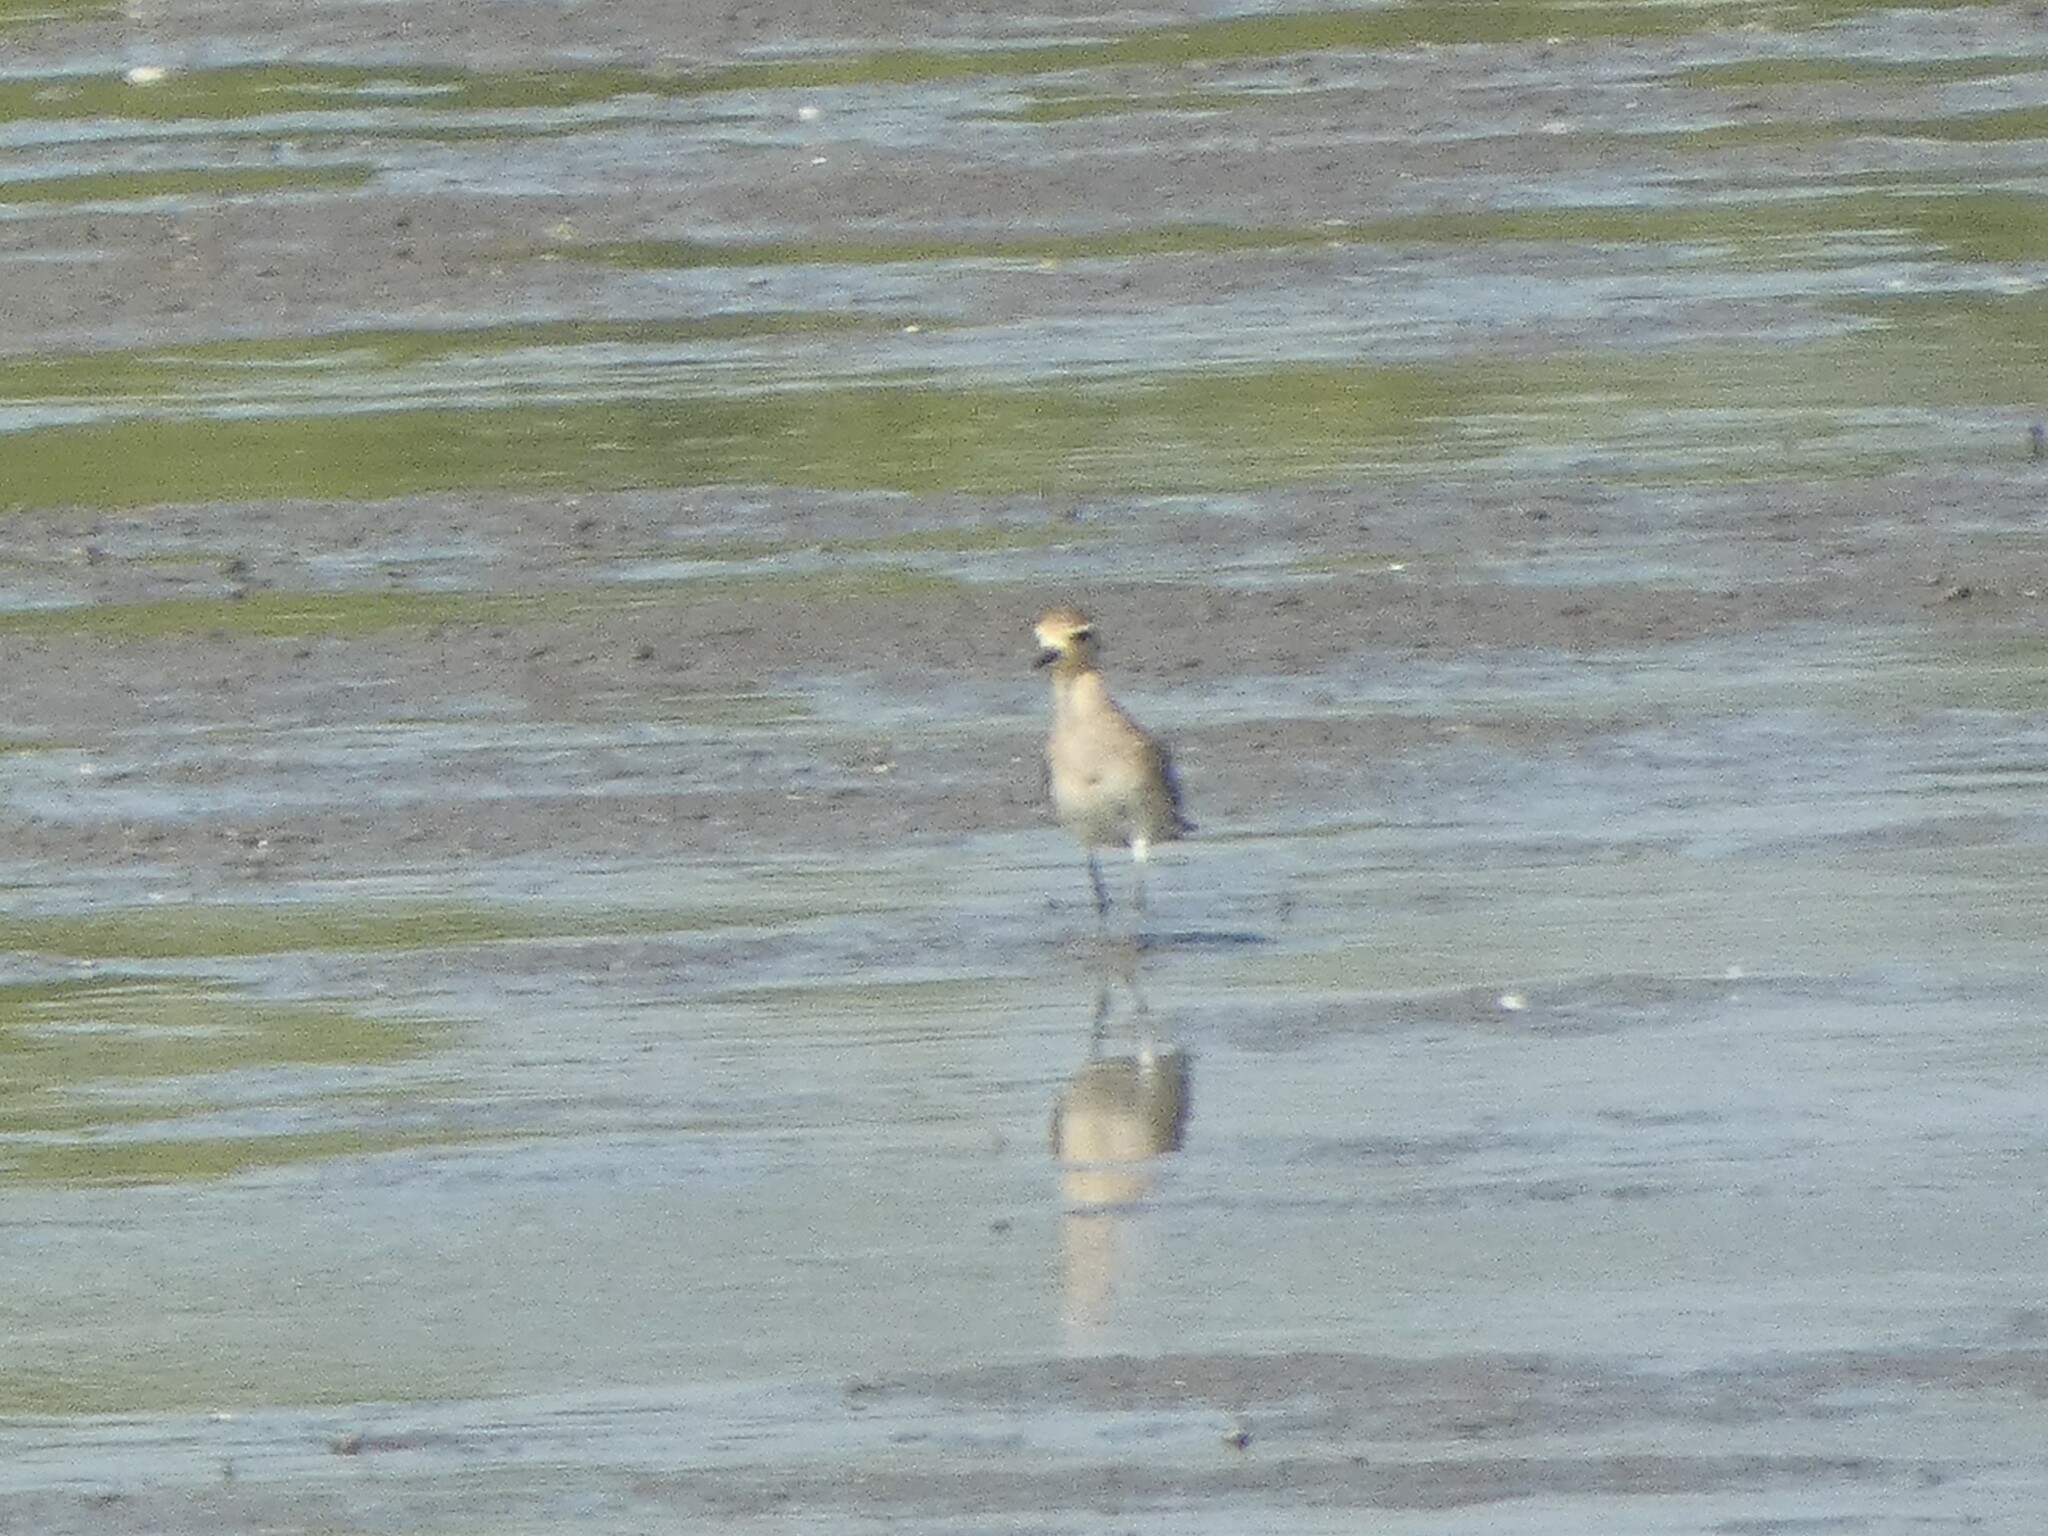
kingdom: Animalia
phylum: Chordata
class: Aves
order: Charadriiformes
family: Charadriidae
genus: Pluvialis
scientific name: Pluvialis fulva
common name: Pacific golden plover
